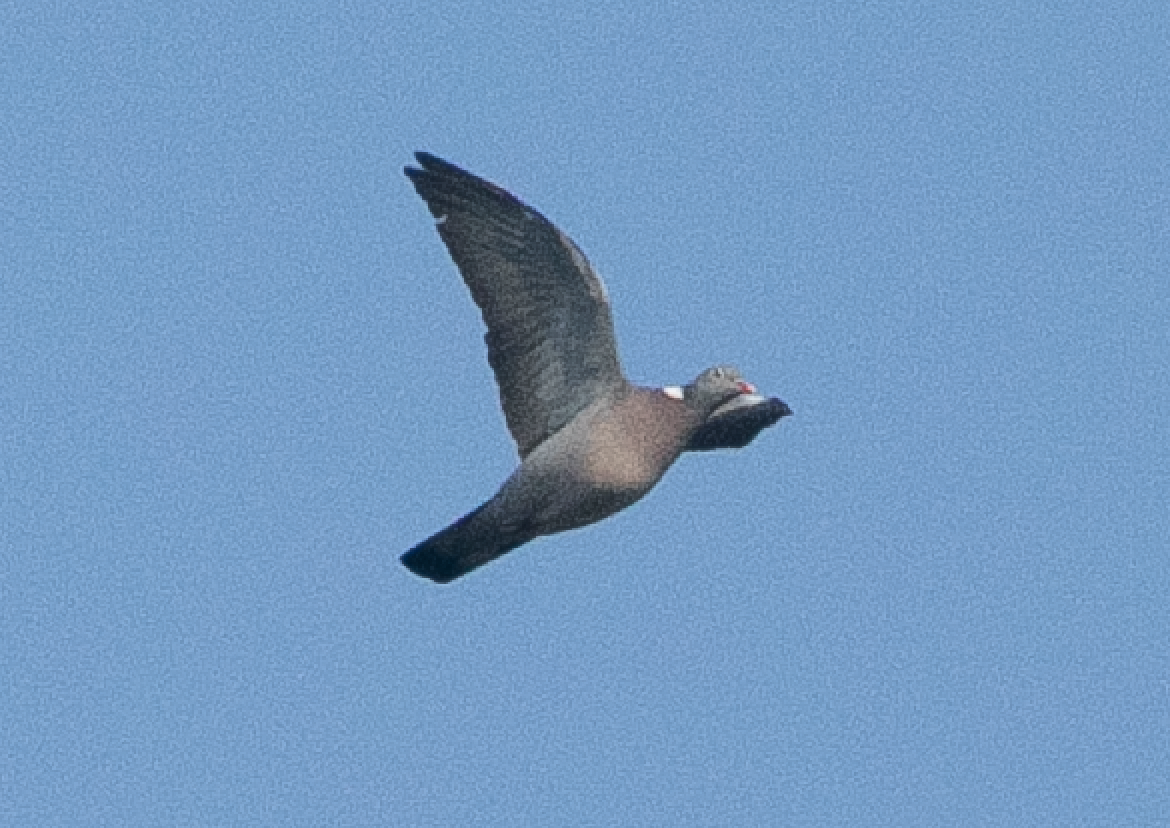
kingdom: Animalia
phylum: Chordata
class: Aves
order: Columbiformes
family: Columbidae
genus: Columba
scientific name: Columba palumbus
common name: Common wood pigeon
